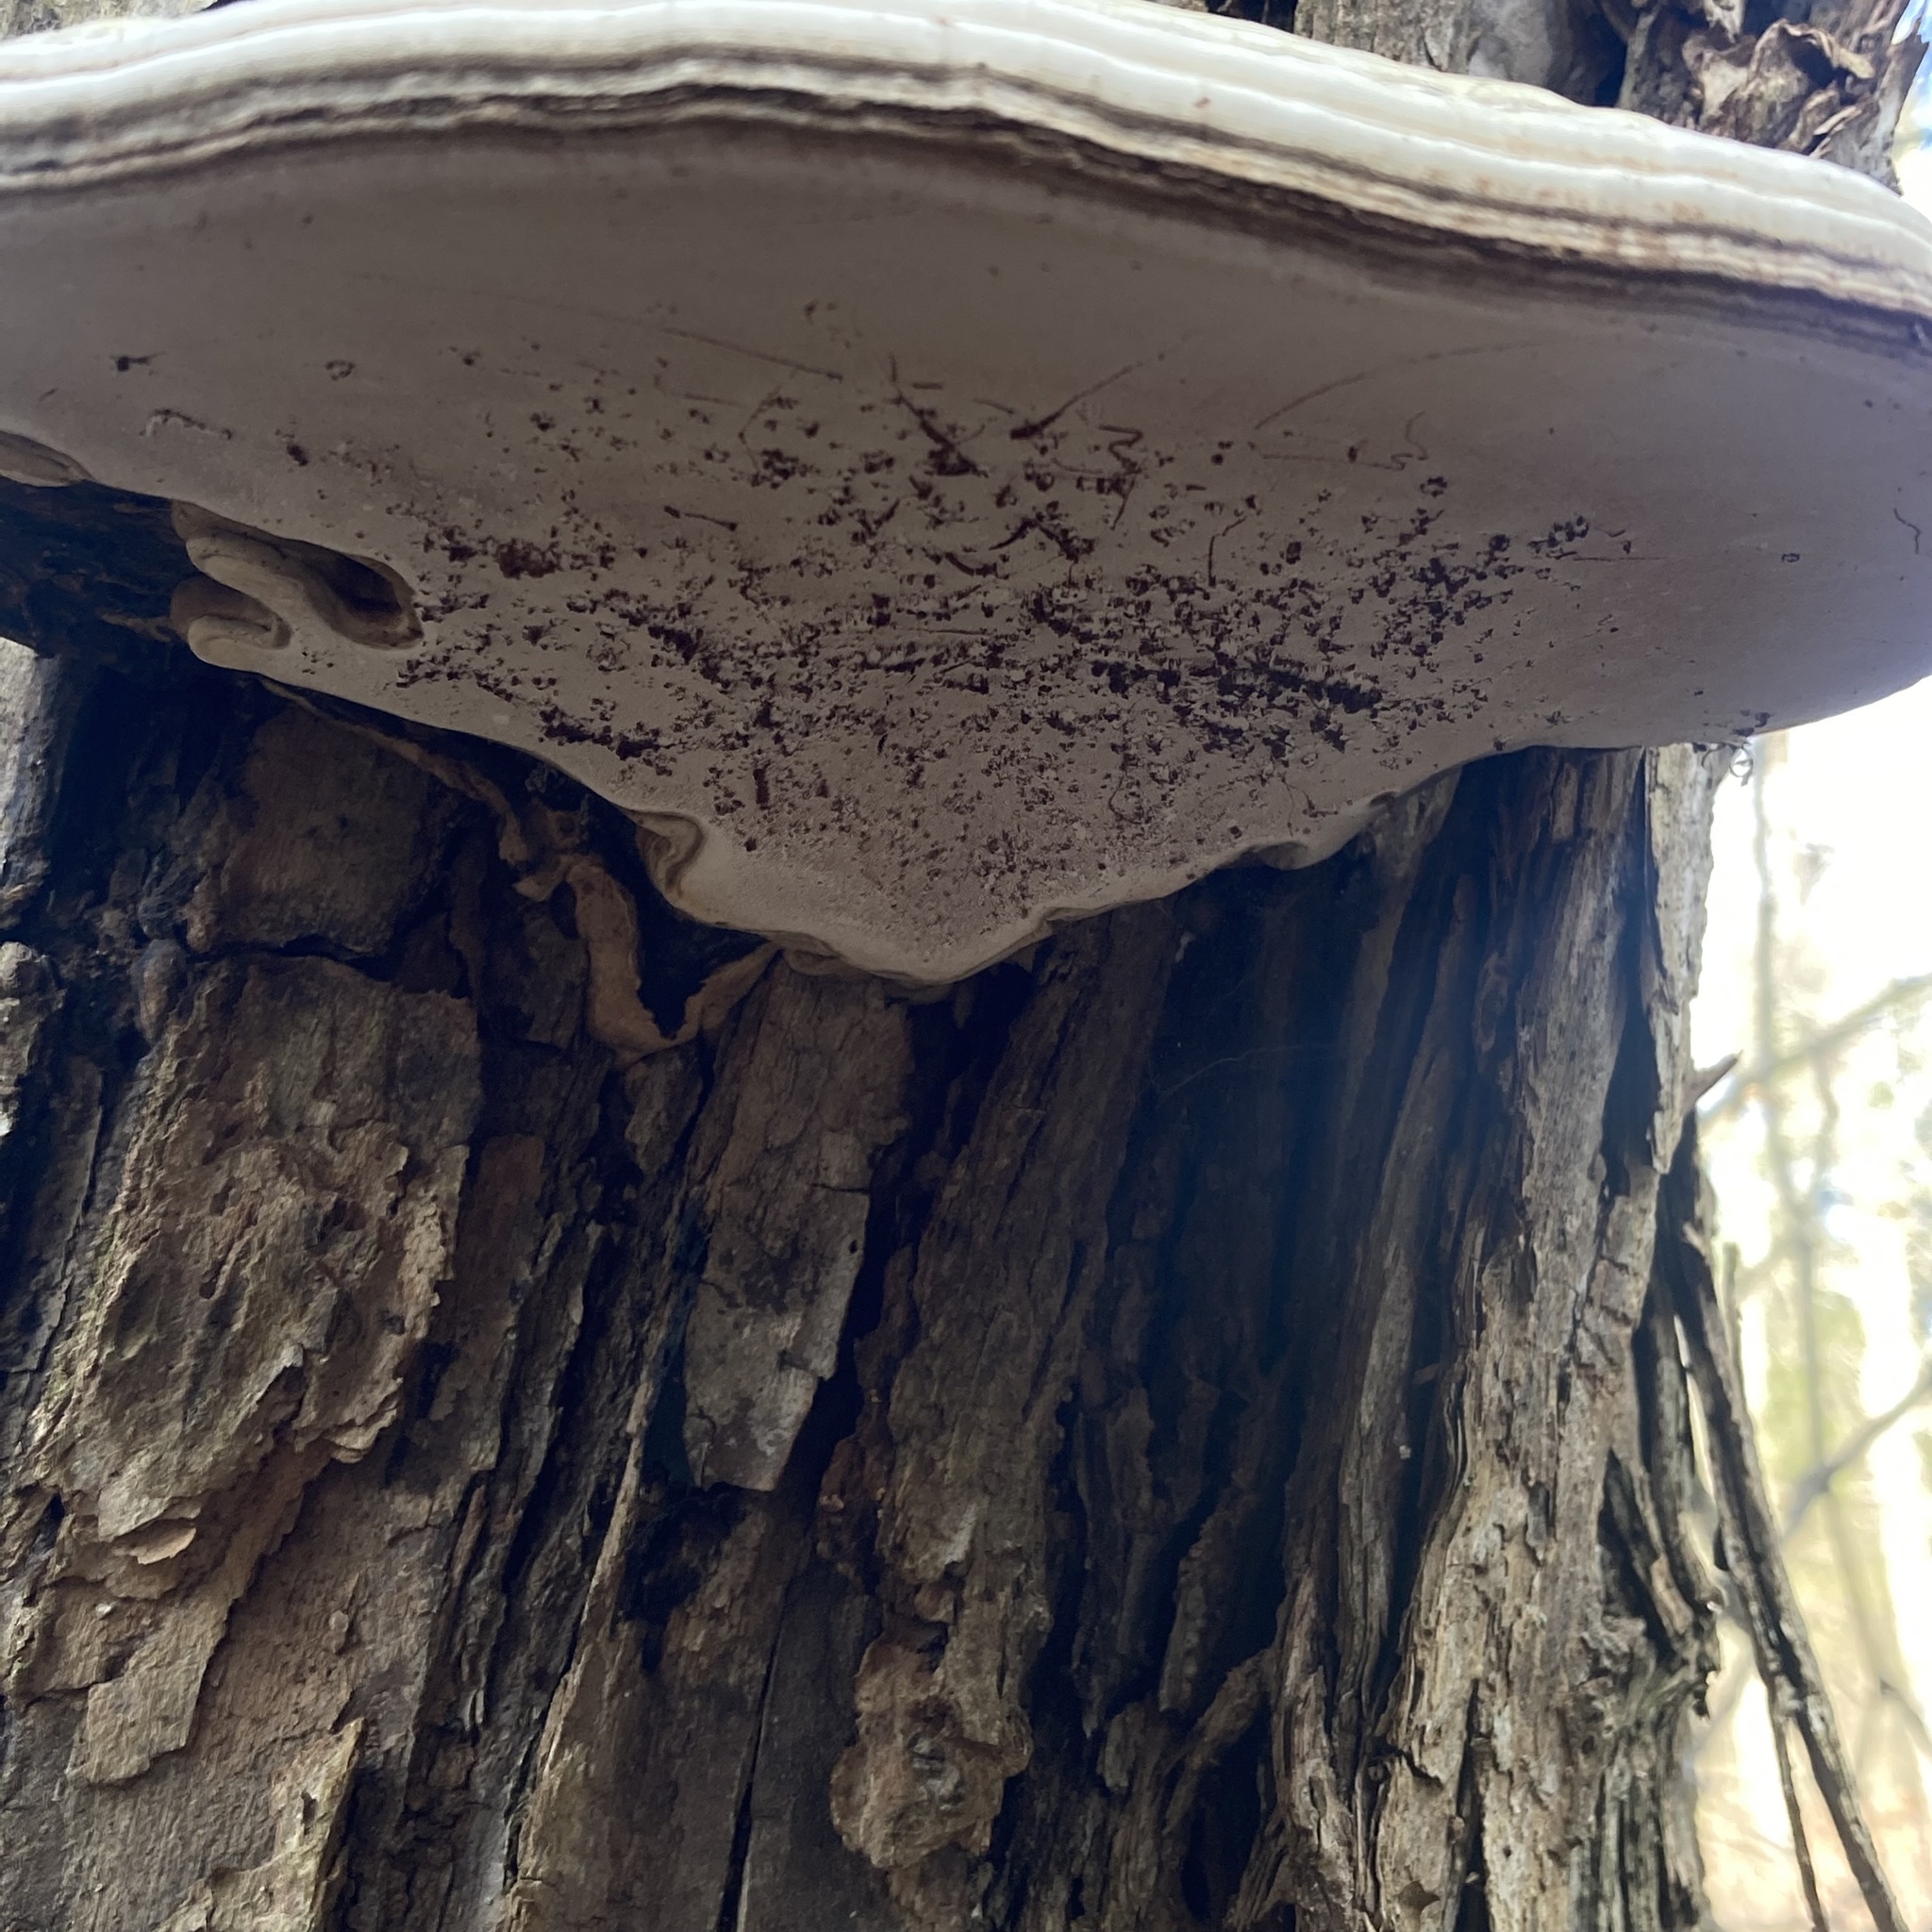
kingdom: Fungi
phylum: Basidiomycota
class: Agaricomycetes
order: Polyporales
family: Polyporaceae
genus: Ganoderma
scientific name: Ganoderma applanatum
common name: Artist's bracket
